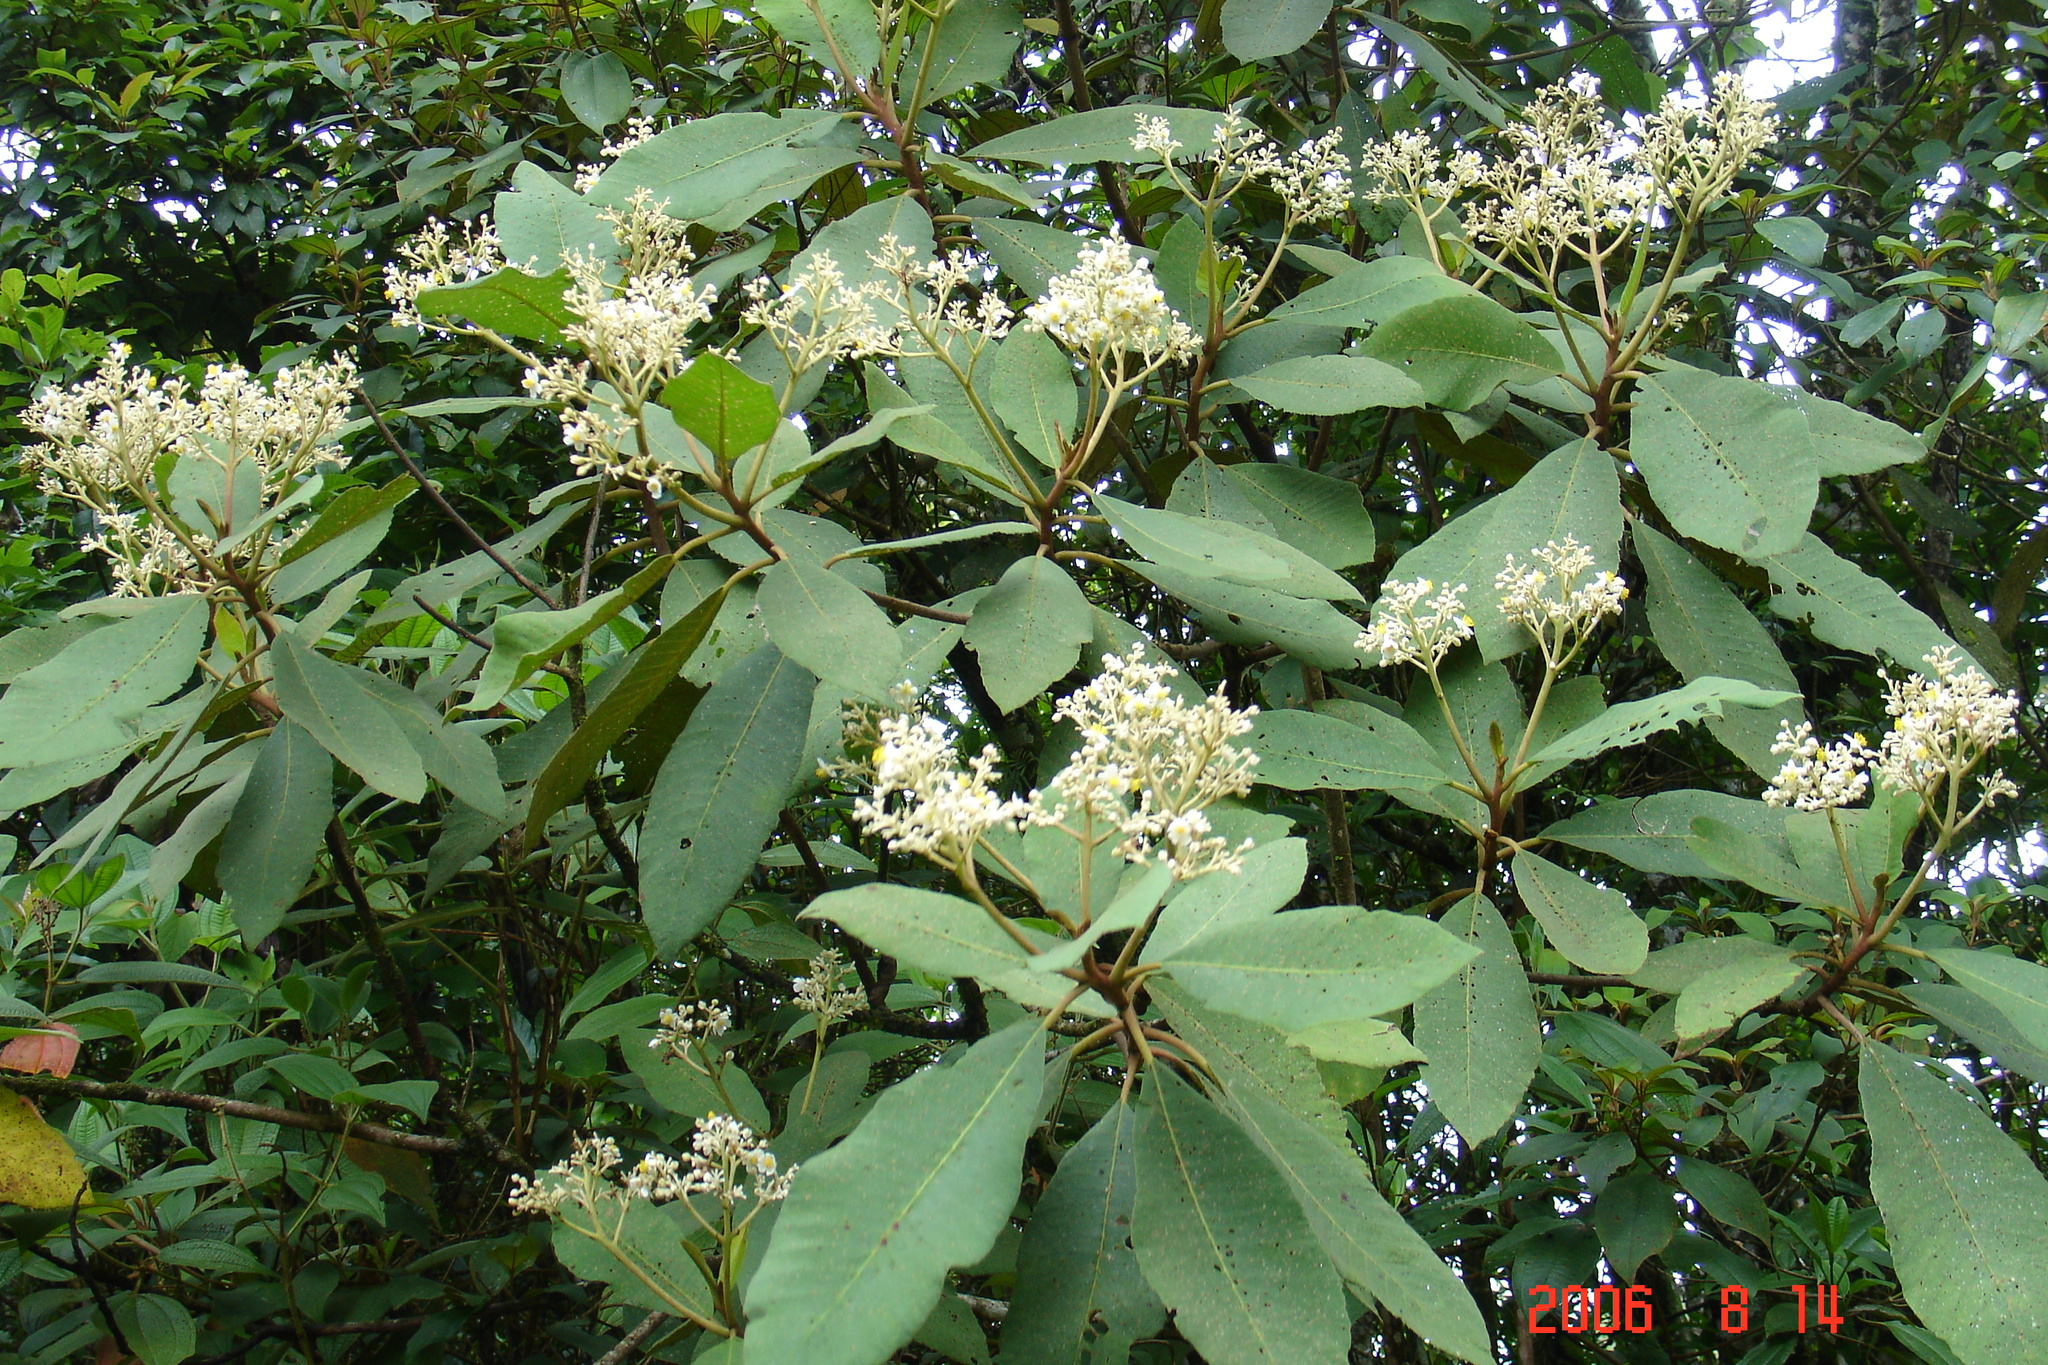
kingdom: Plantae
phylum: Tracheophyta
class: Magnoliopsida
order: Lamiales
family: Scrophulariaceae
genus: Buddleja
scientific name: Buddleja cordata
